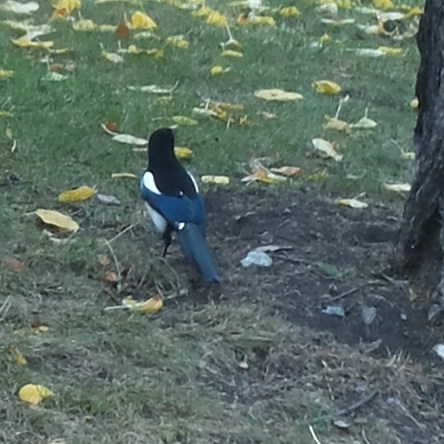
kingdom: Animalia
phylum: Chordata
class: Aves
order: Passeriformes
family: Corvidae
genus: Pica
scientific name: Pica pica
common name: Eurasian magpie
